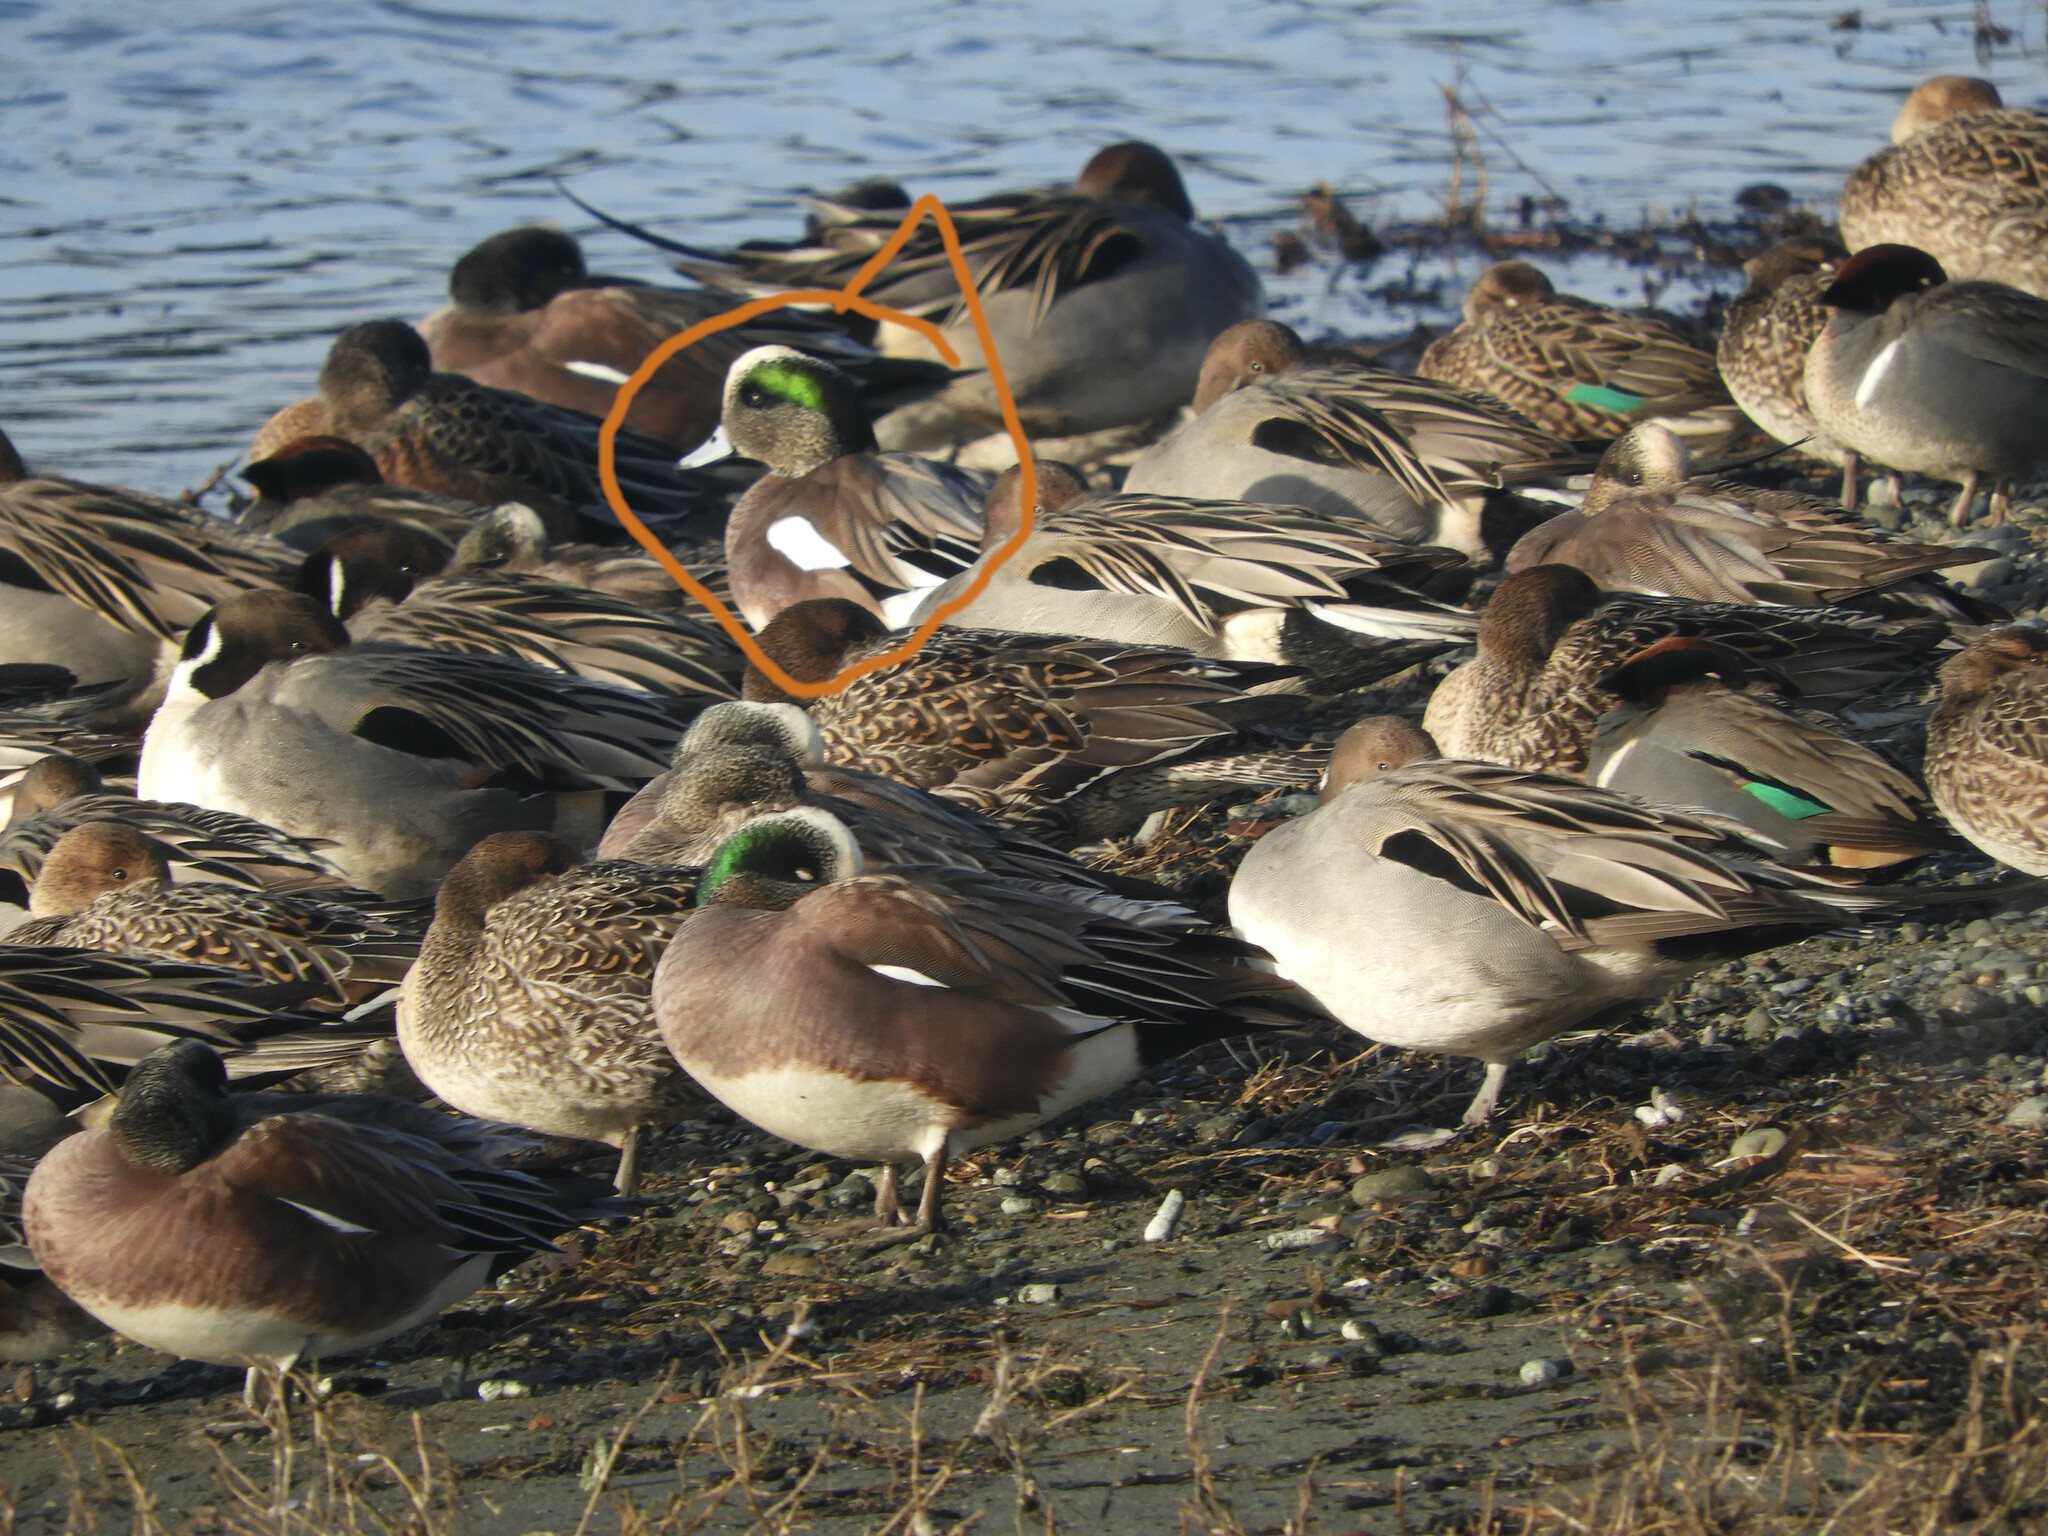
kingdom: Animalia
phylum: Chordata
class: Aves
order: Anseriformes
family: Anatidae
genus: Mareca
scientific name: Mareca americana
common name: American wigeon
